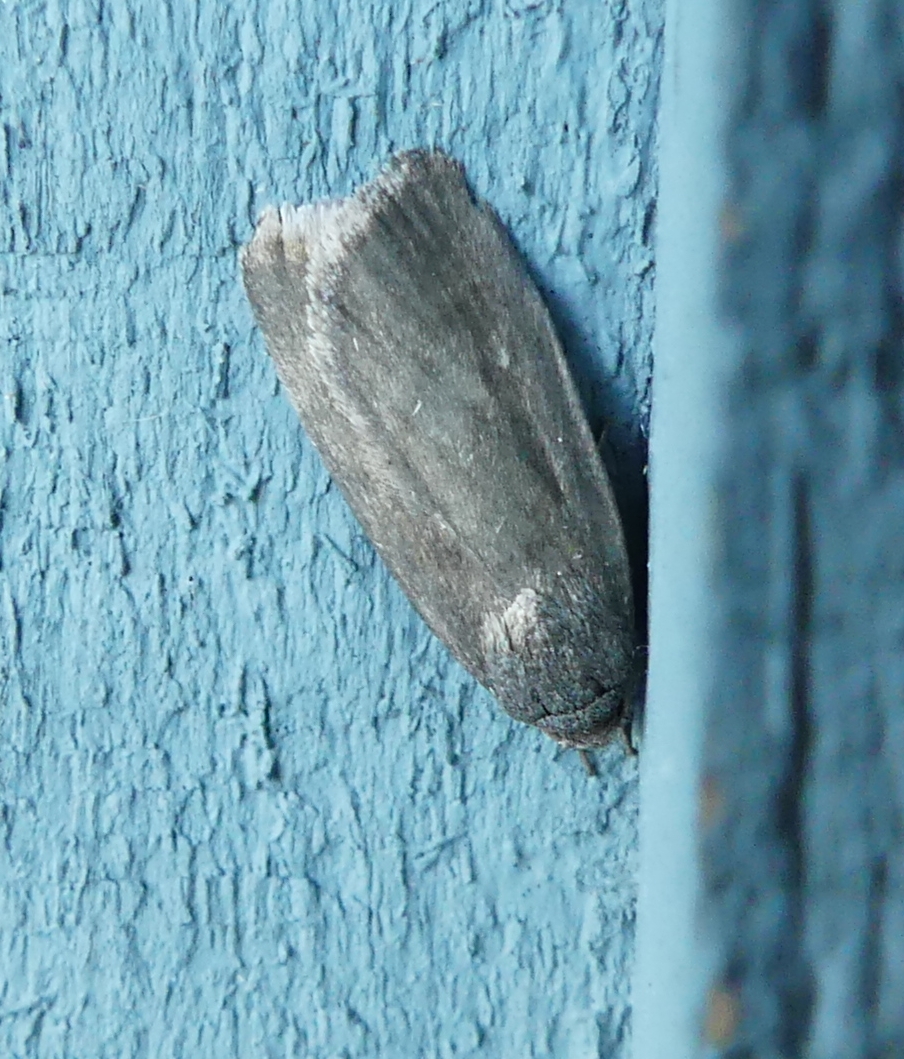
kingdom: Animalia
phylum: Arthropoda
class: Insecta
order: Lepidoptera
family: Noctuidae
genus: Proxenus
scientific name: Proxenus miranda
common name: Miranda moth
